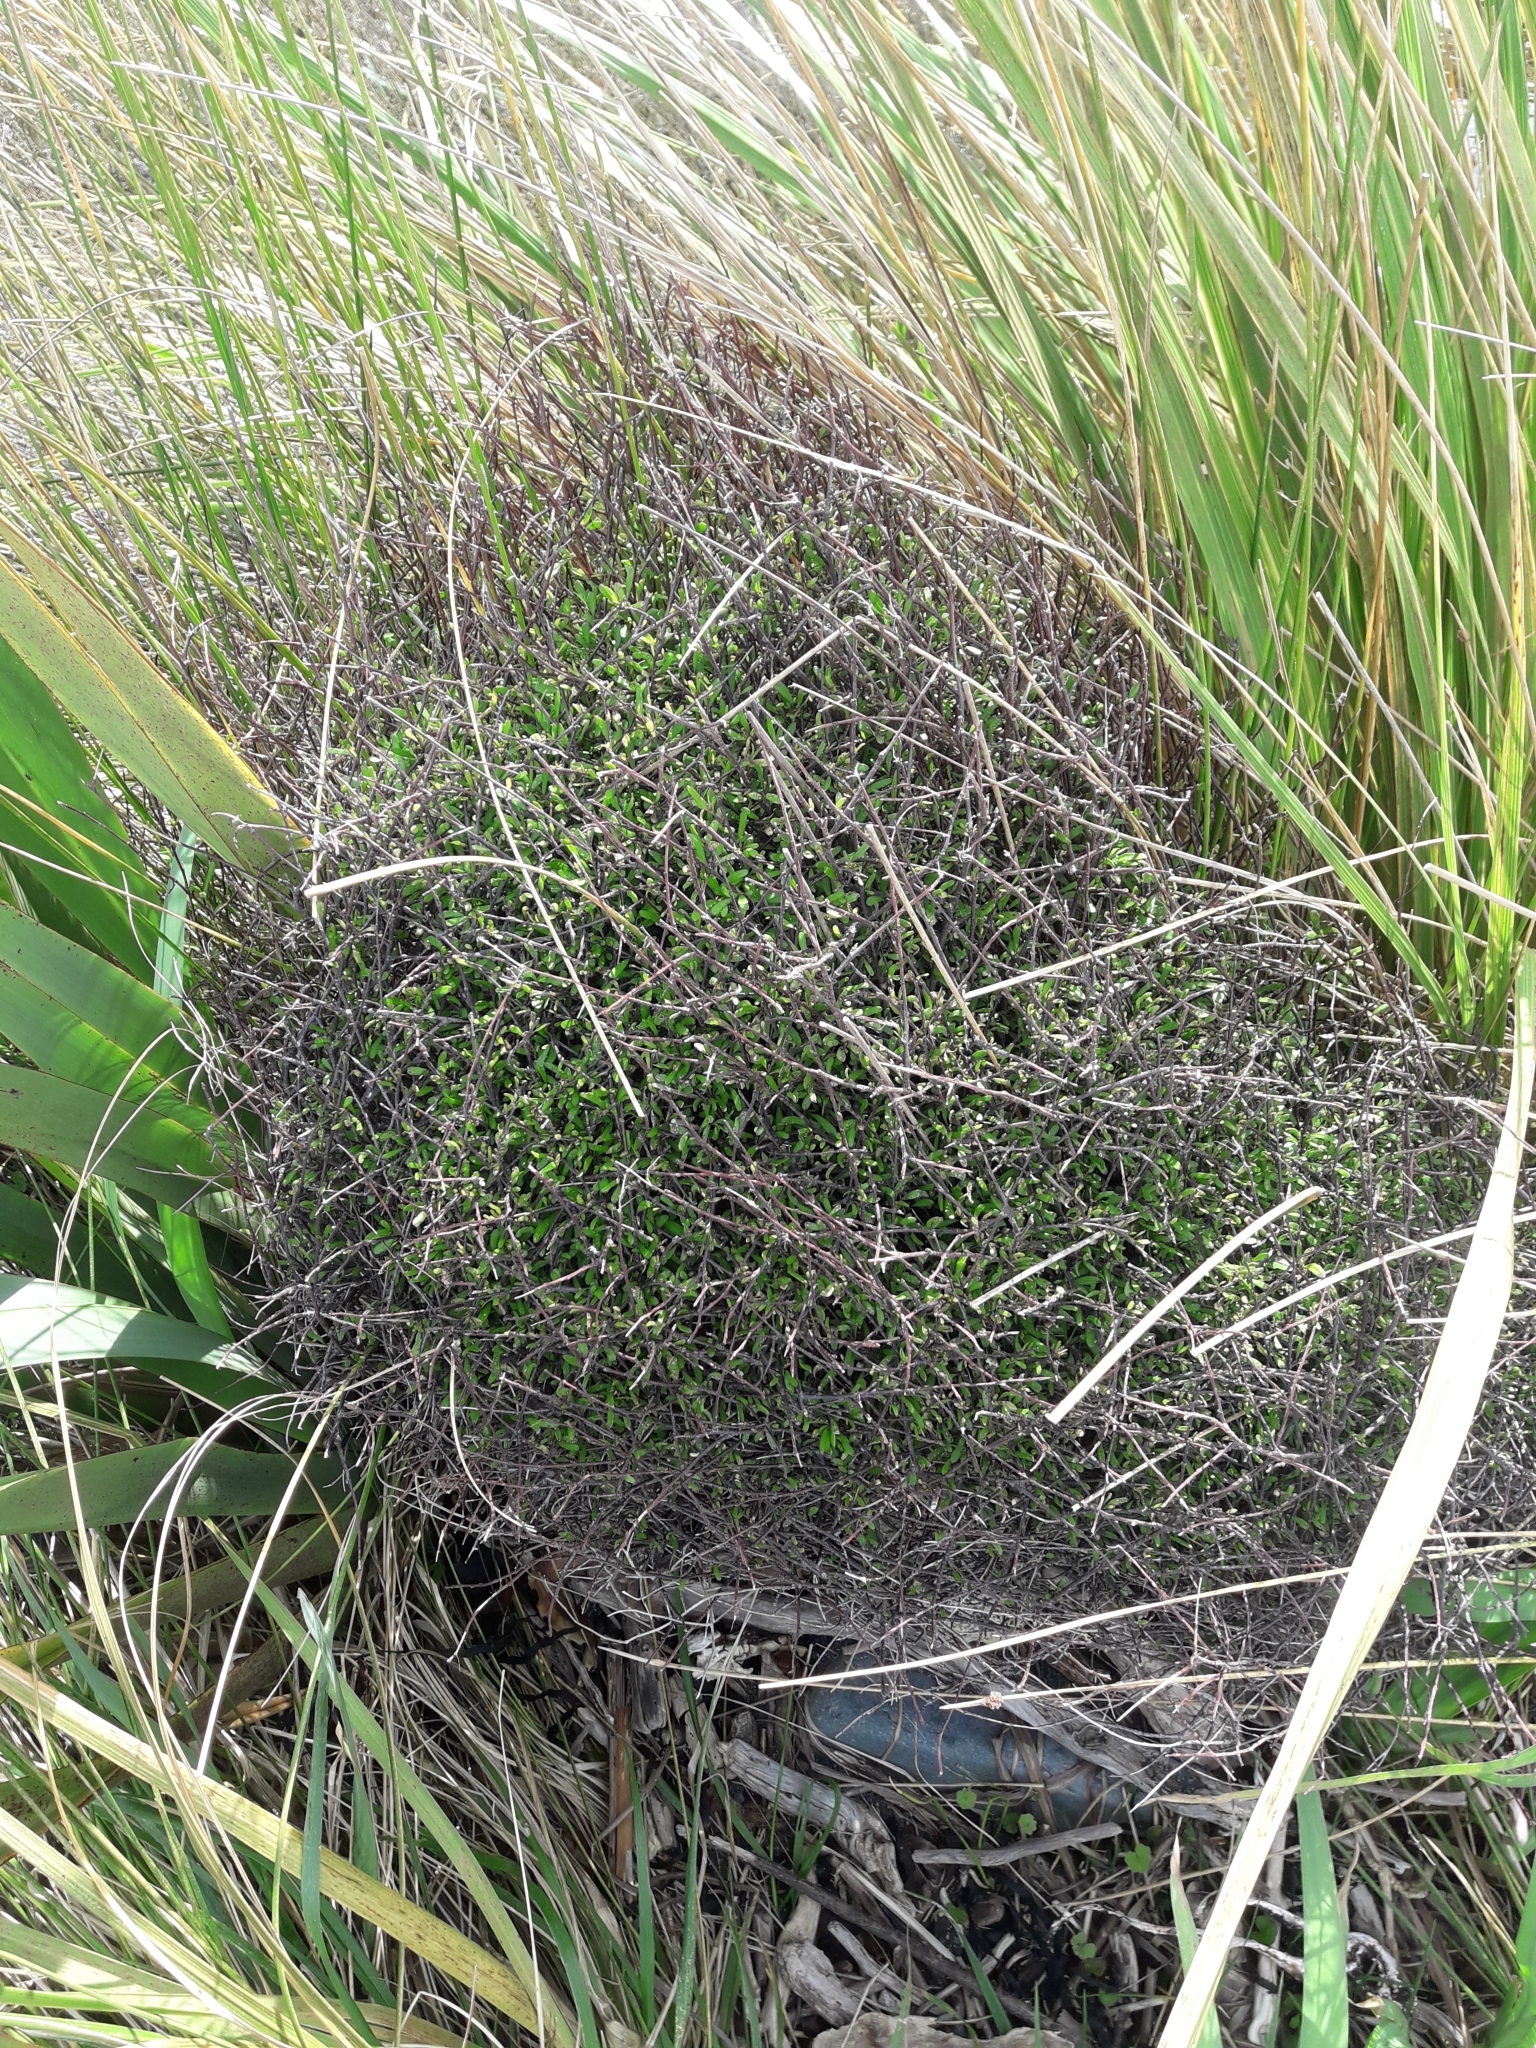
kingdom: Plantae
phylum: Tracheophyta
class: Magnoliopsida
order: Malvales
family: Malvaceae
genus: Plagianthus
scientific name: Plagianthus divaricatus
